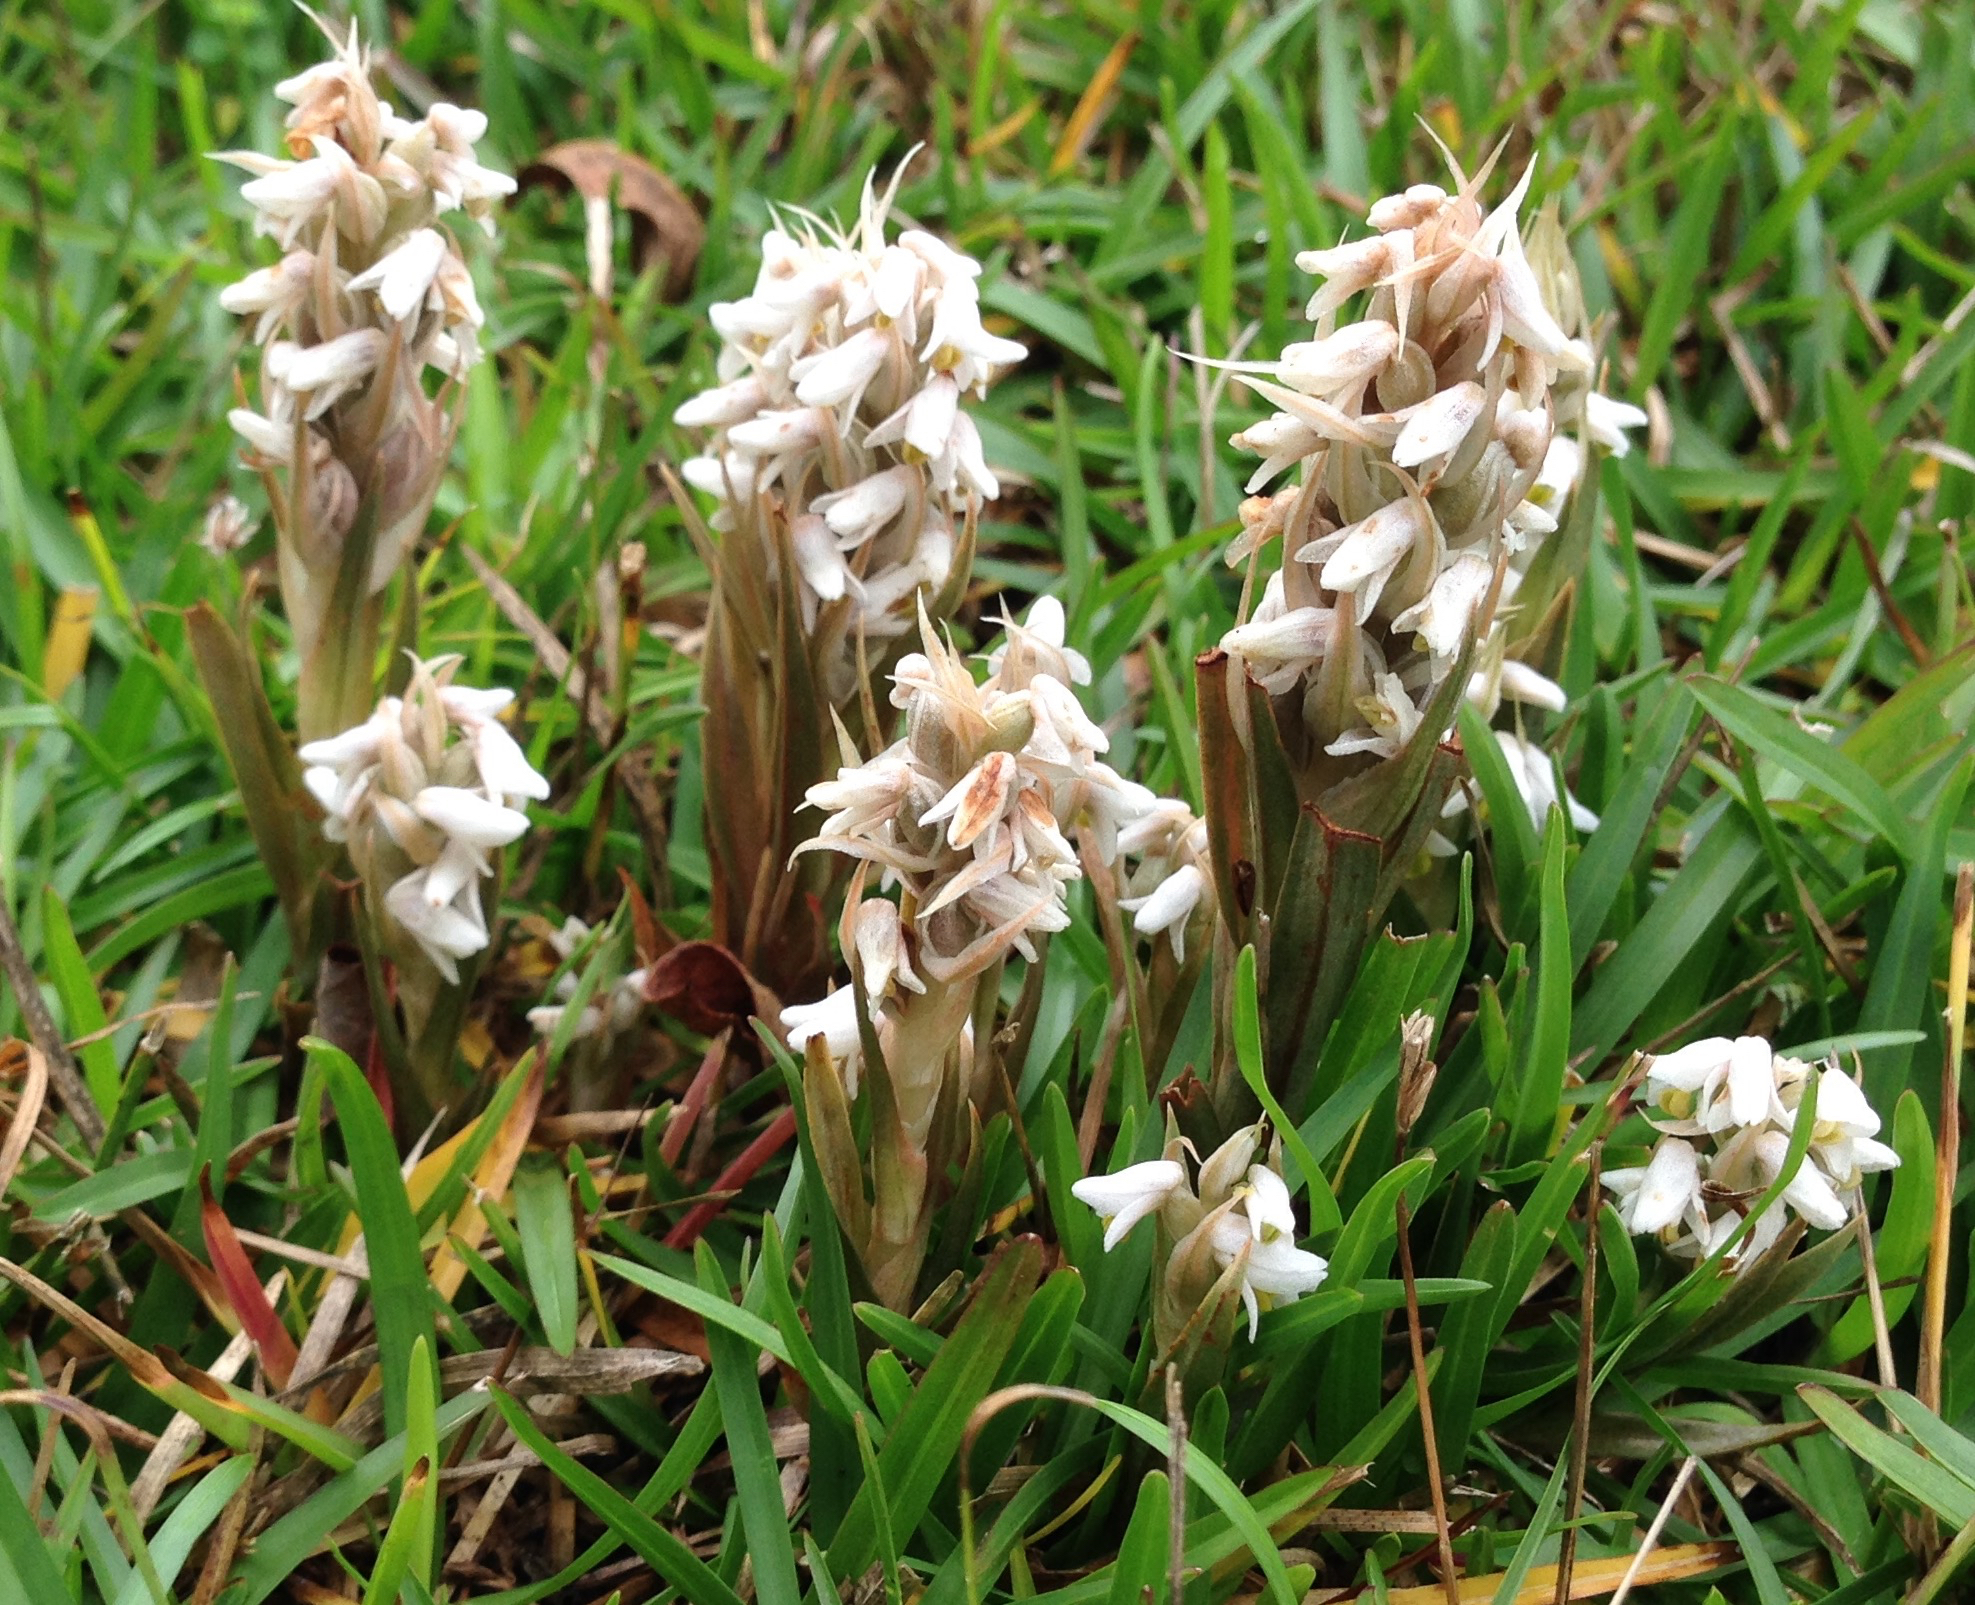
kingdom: Plantae
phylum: Tracheophyta
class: Liliopsida
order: Asparagales
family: Orchidaceae
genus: Zeuxine
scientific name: Zeuxine strateumatica
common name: Soldier's orchid
